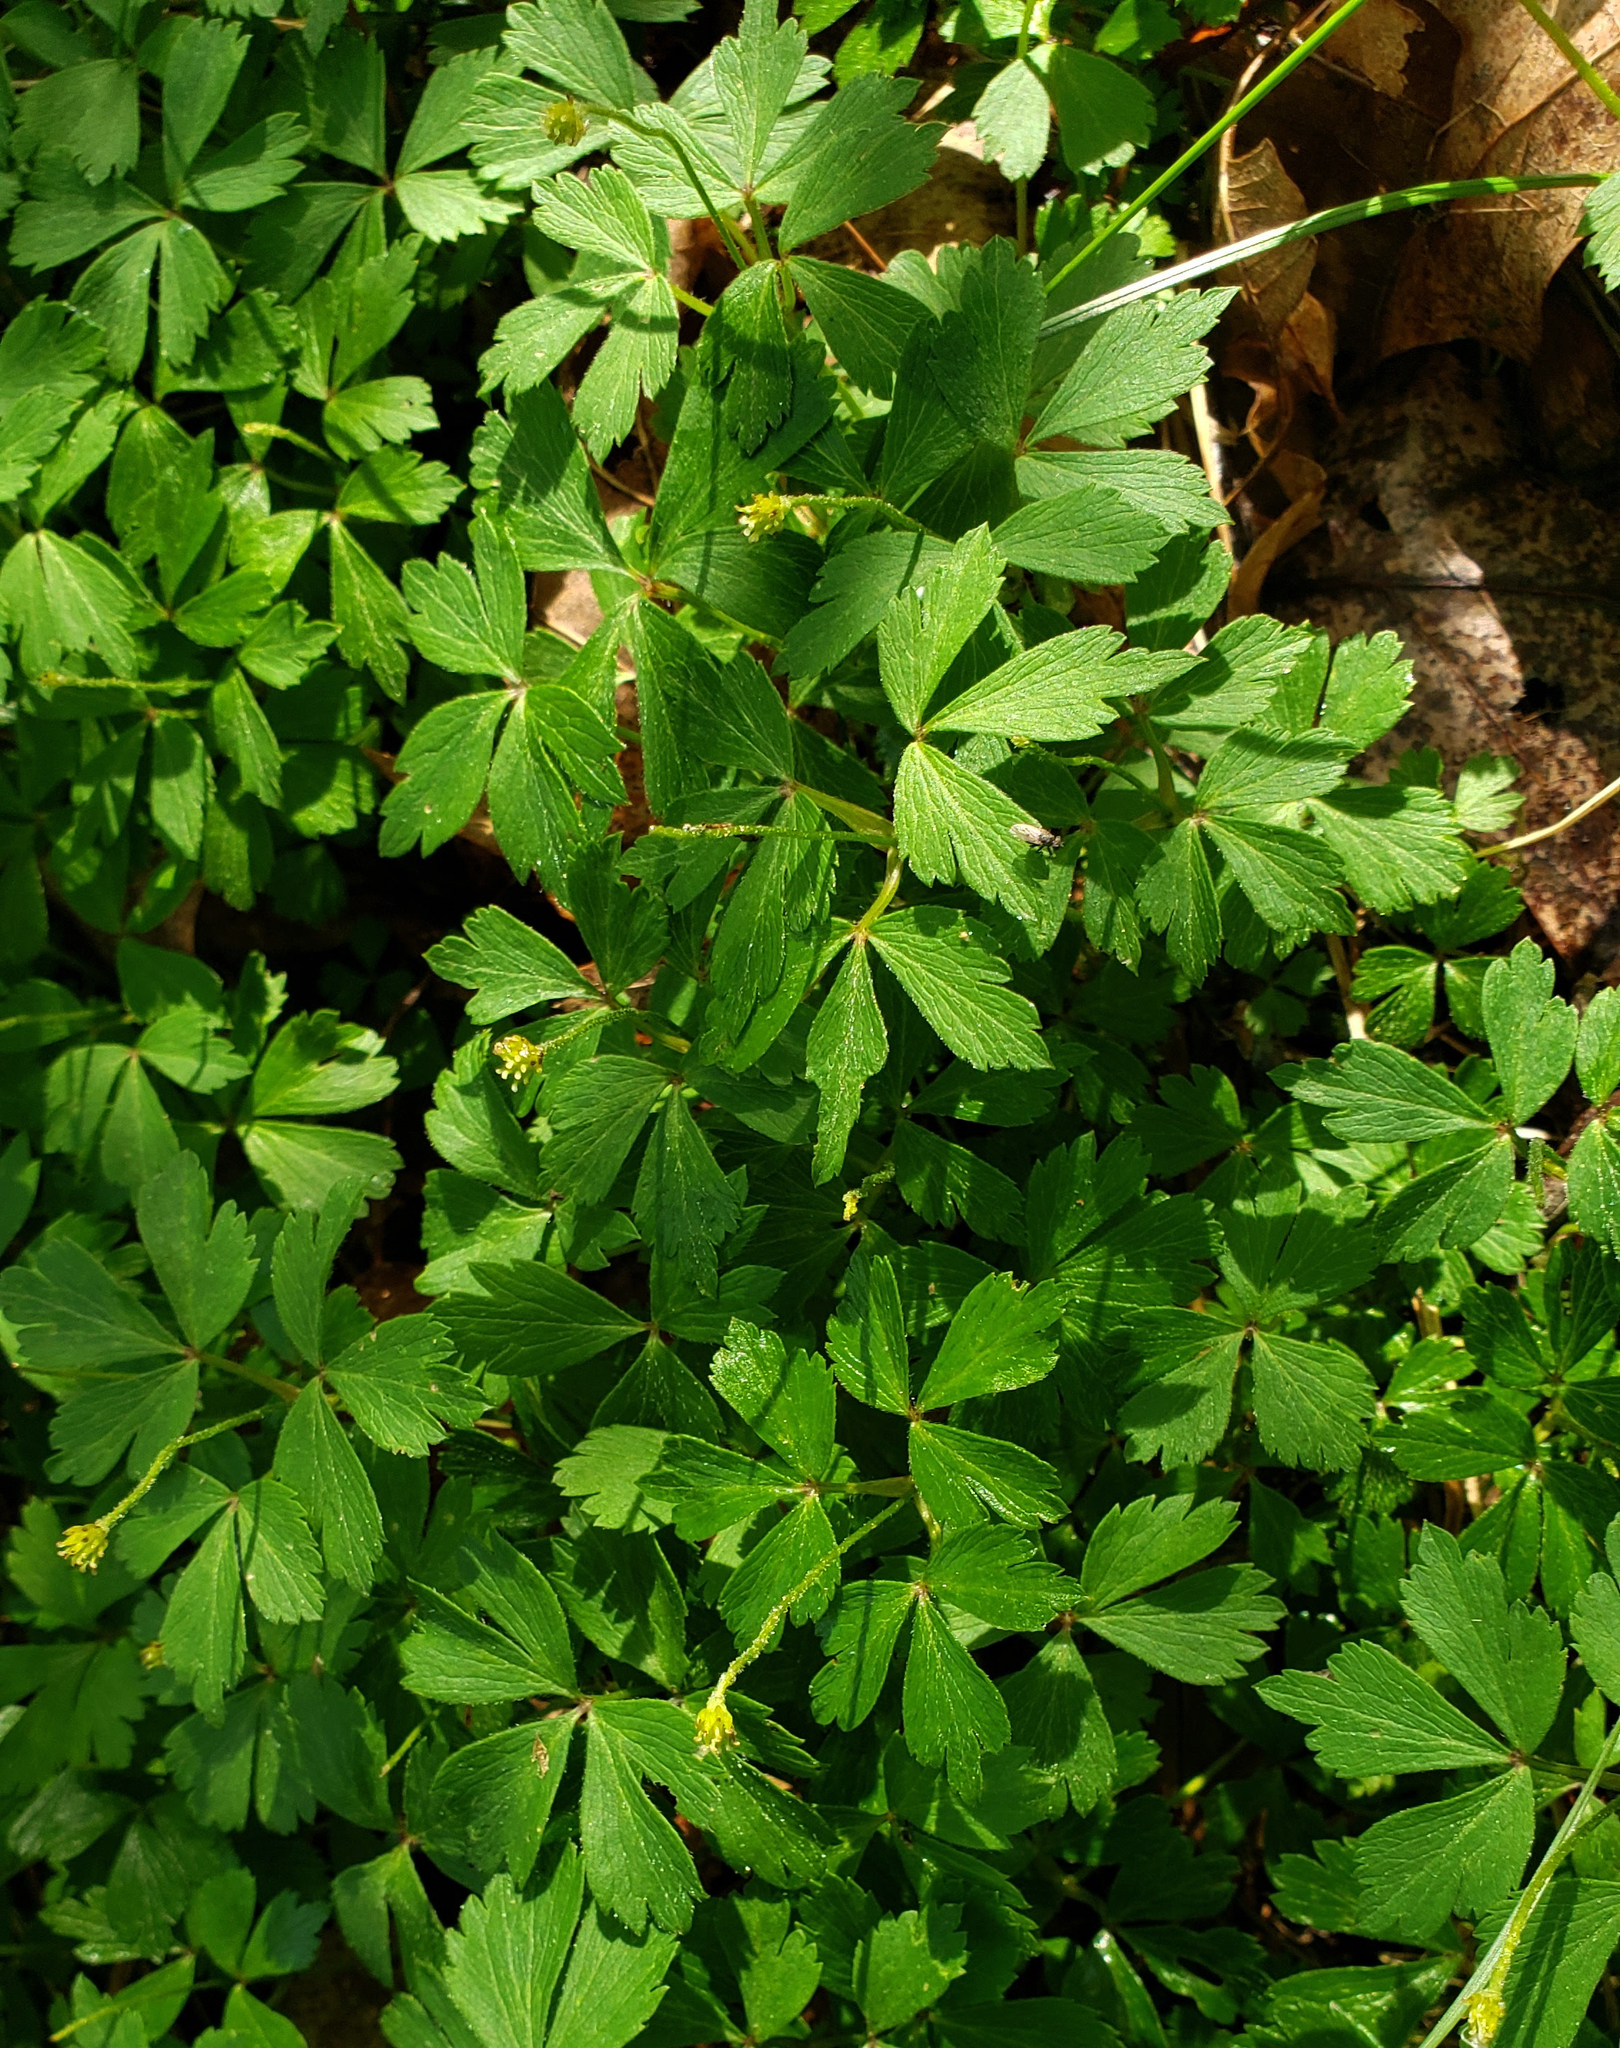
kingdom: Plantae
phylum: Tracheophyta
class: Magnoliopsida
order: Ranunculales
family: Ranunculaceae
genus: Anemone
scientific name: Anemone quinquefolia
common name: Wood anemone
